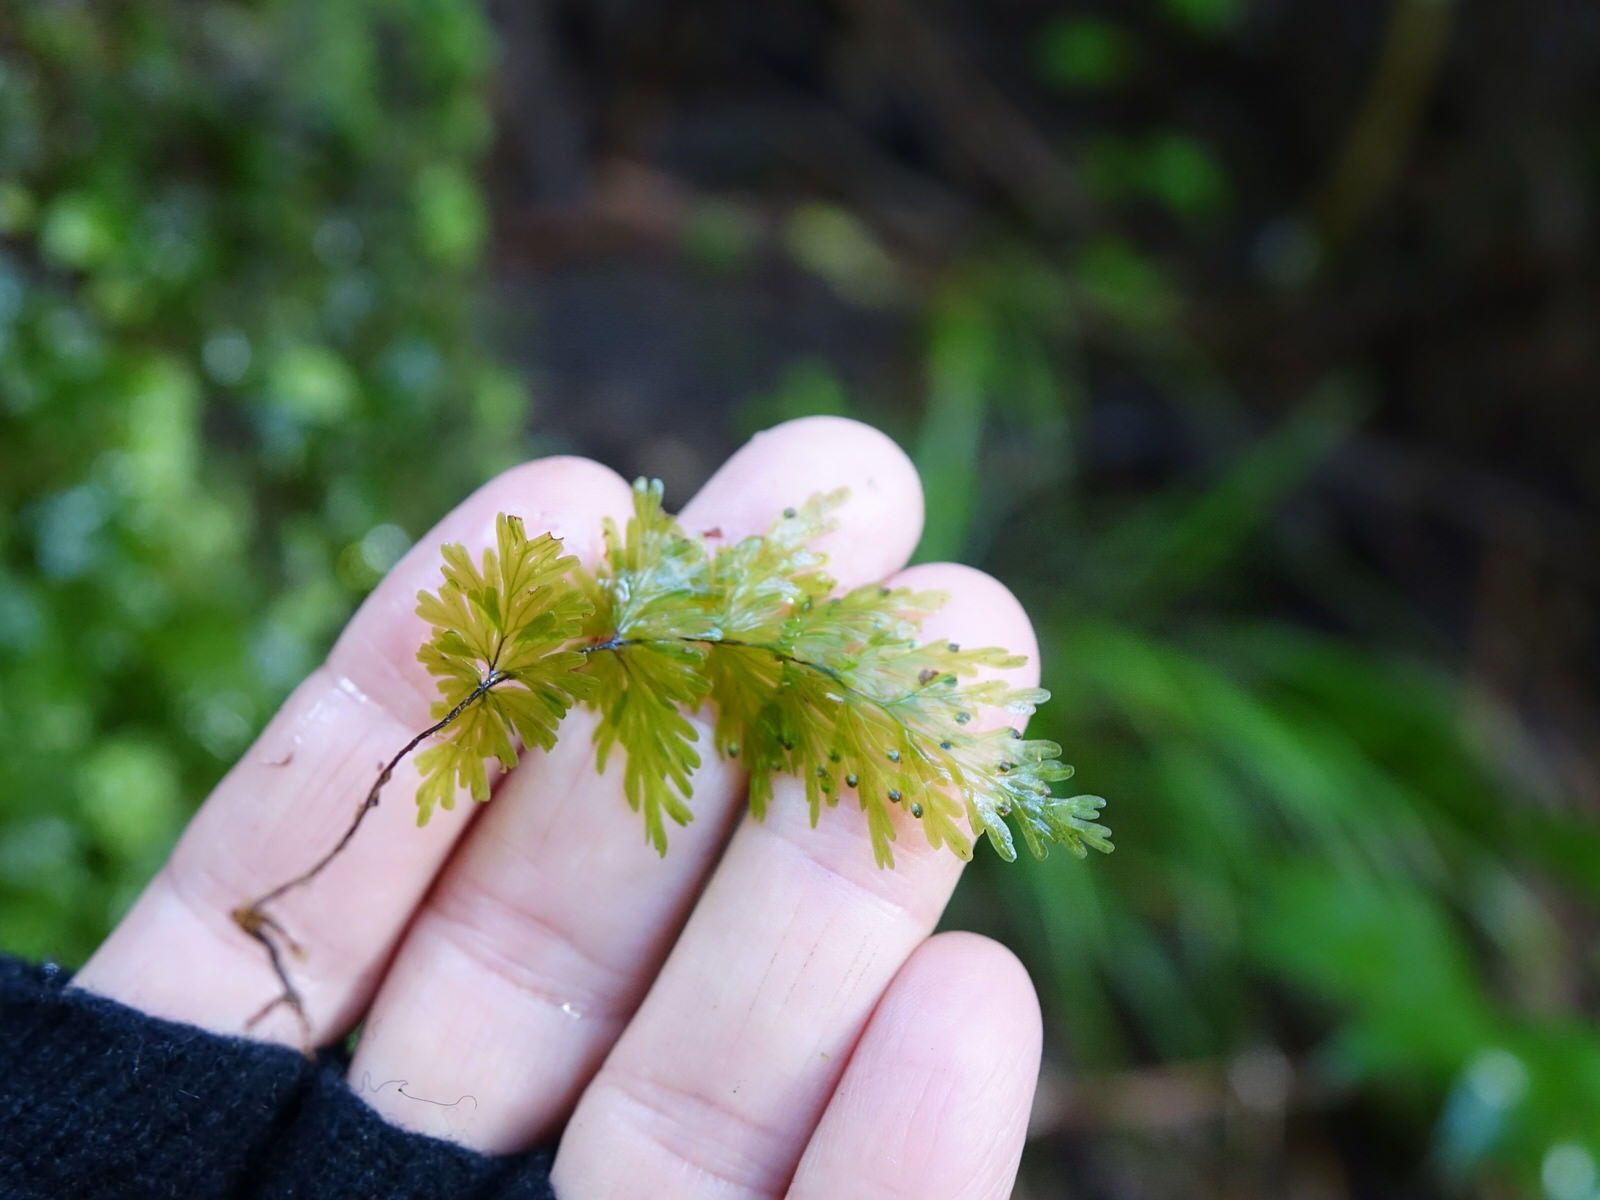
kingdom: Plantae
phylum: Tracheophyta
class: Polypodiopsida
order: Hymenophyllales
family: Hymenophyllaceae
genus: Hymenophyllum
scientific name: Hymenophyllum flabellatum
